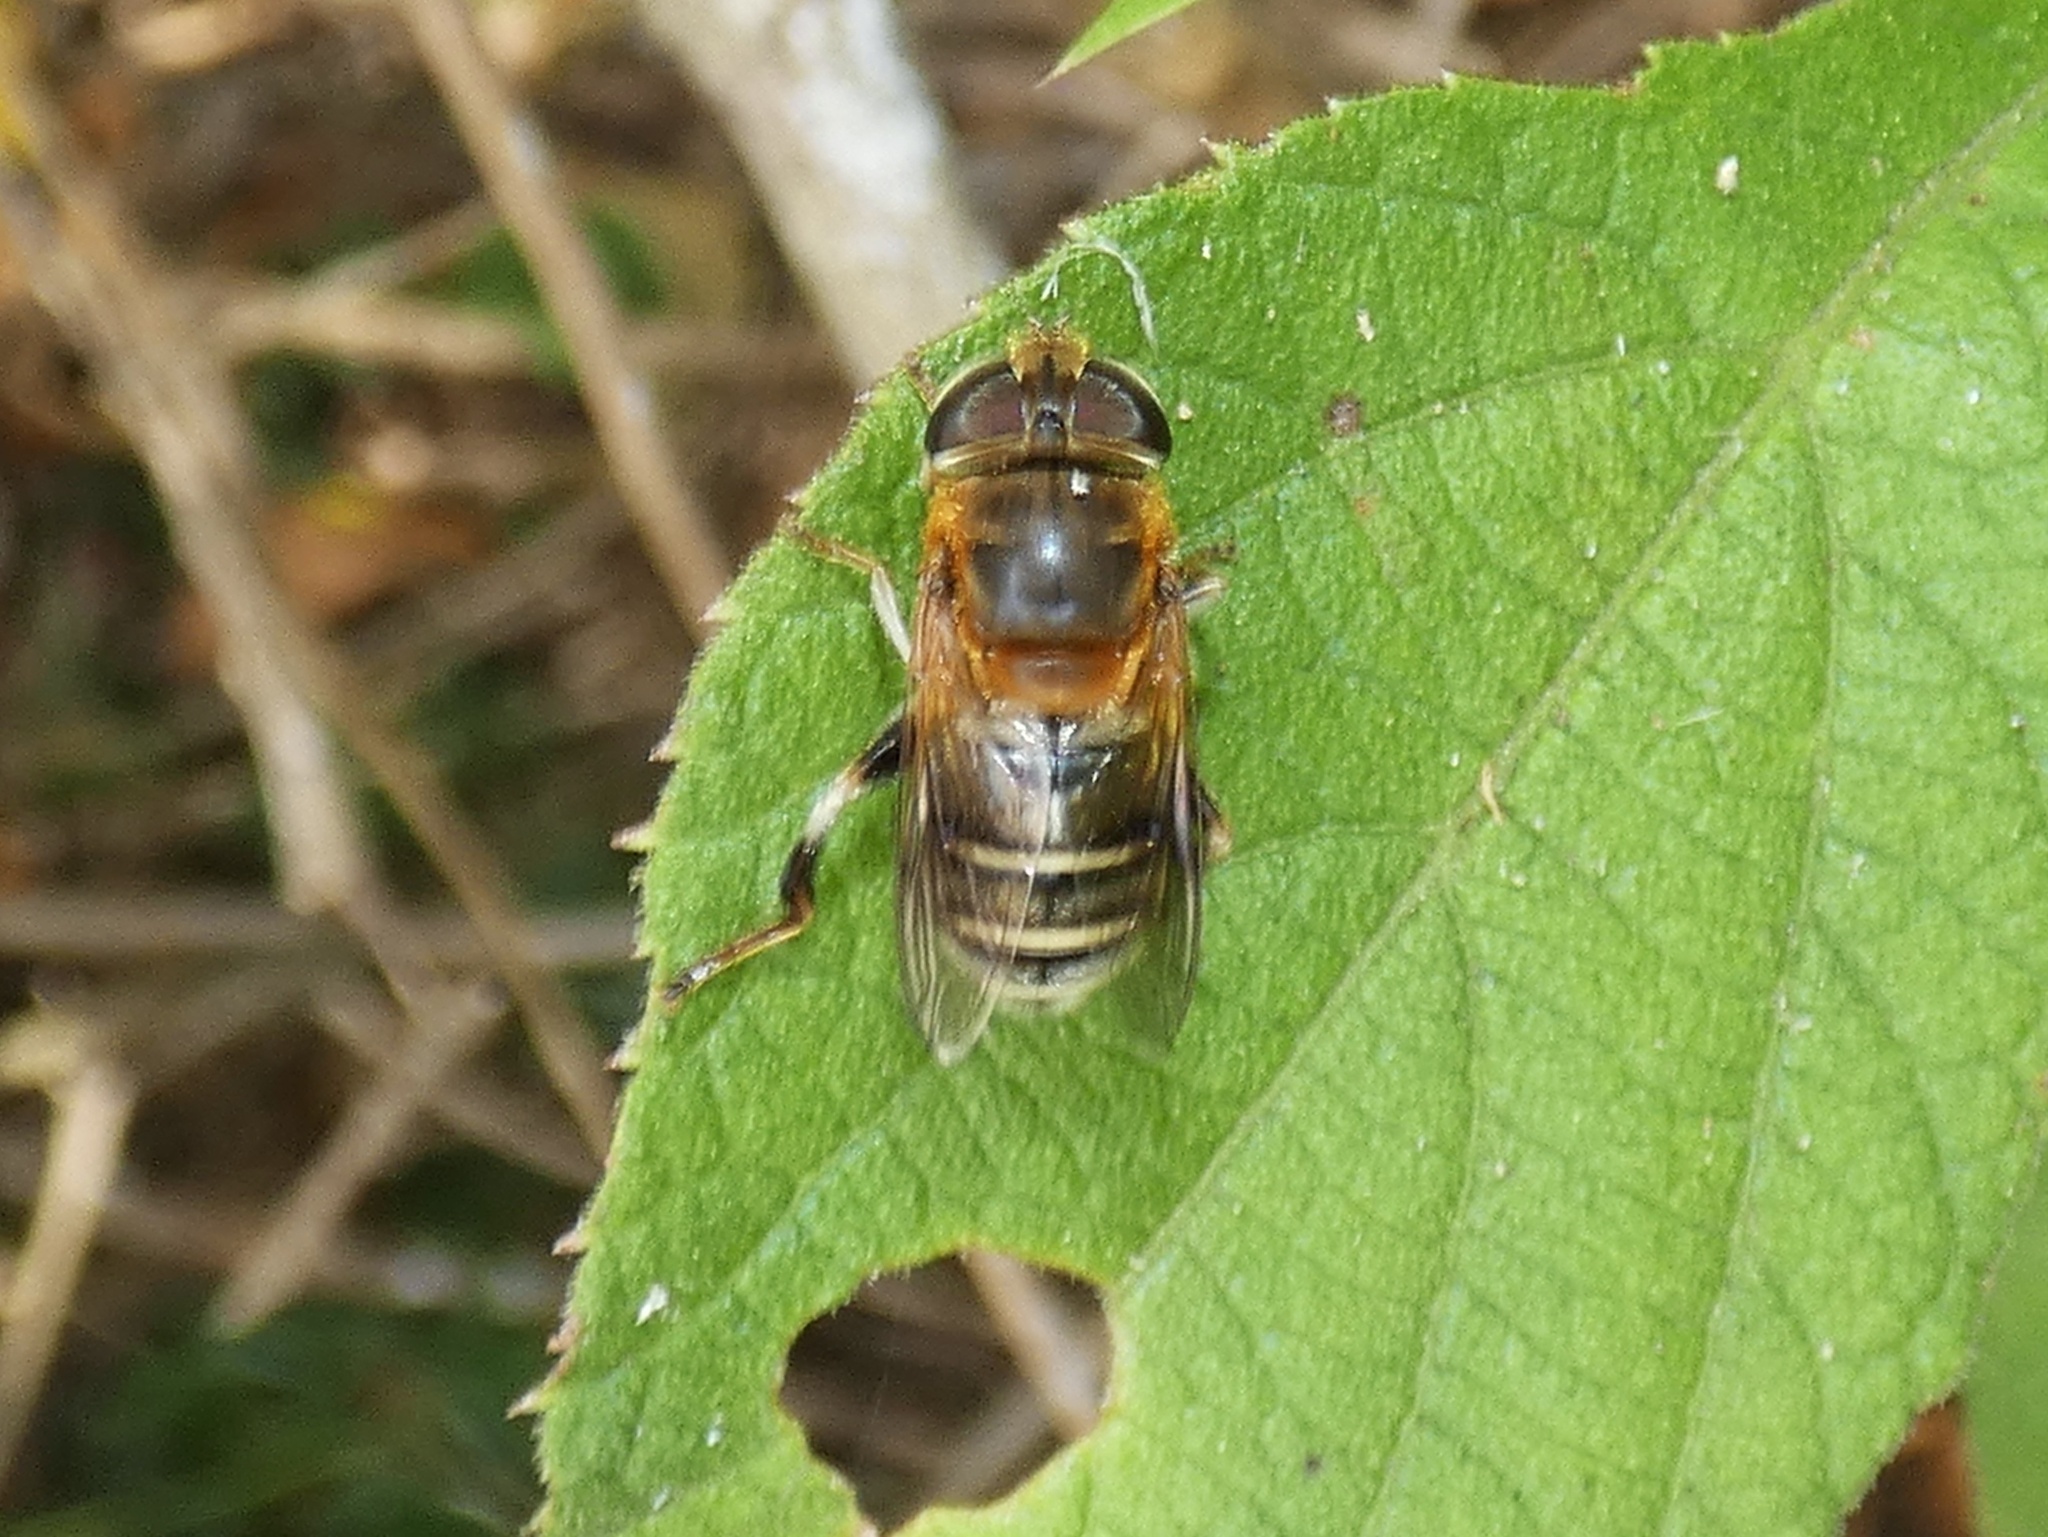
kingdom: Animalia
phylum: Arthropoda
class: Insecta
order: Diptera
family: Syrphidae
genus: Palpada
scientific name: Palpada mexicana
